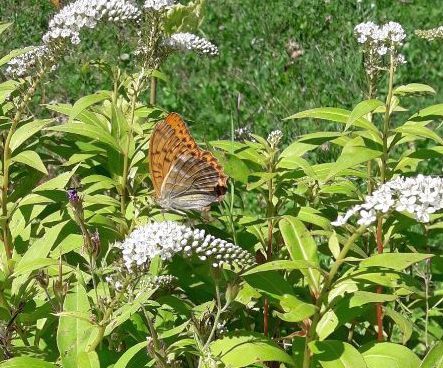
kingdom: Animalia
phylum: Arthropoda
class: Insecta
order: Lepidoptera
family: Nymphalidae
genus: Argynnis
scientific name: Argynnis paphia
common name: Silver-washed fritillary
